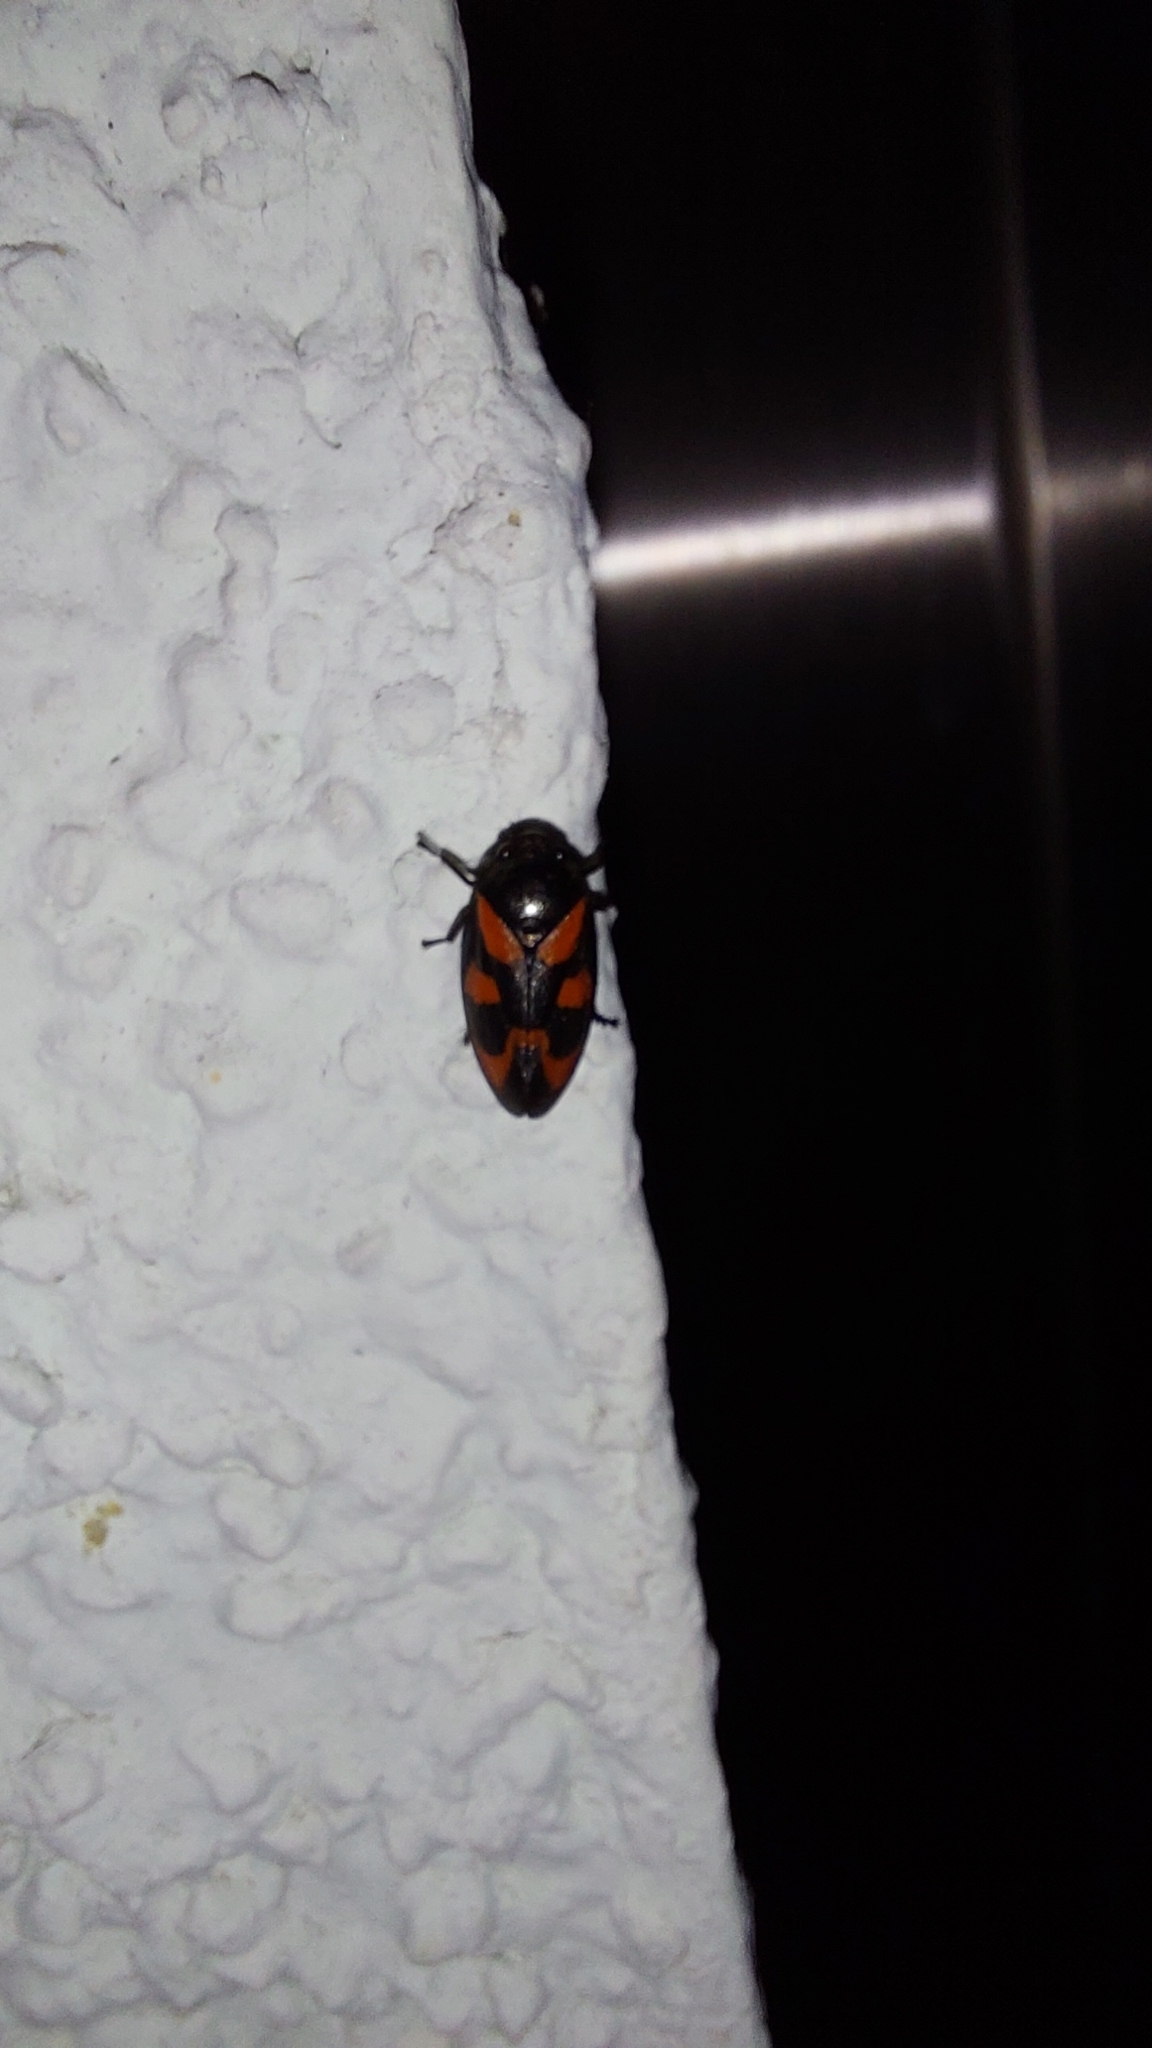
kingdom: Animalia
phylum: Arthropoda
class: Insecta
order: Hemiptera
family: Cercopidae
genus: Cercopis
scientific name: Cercopis vulnerata
